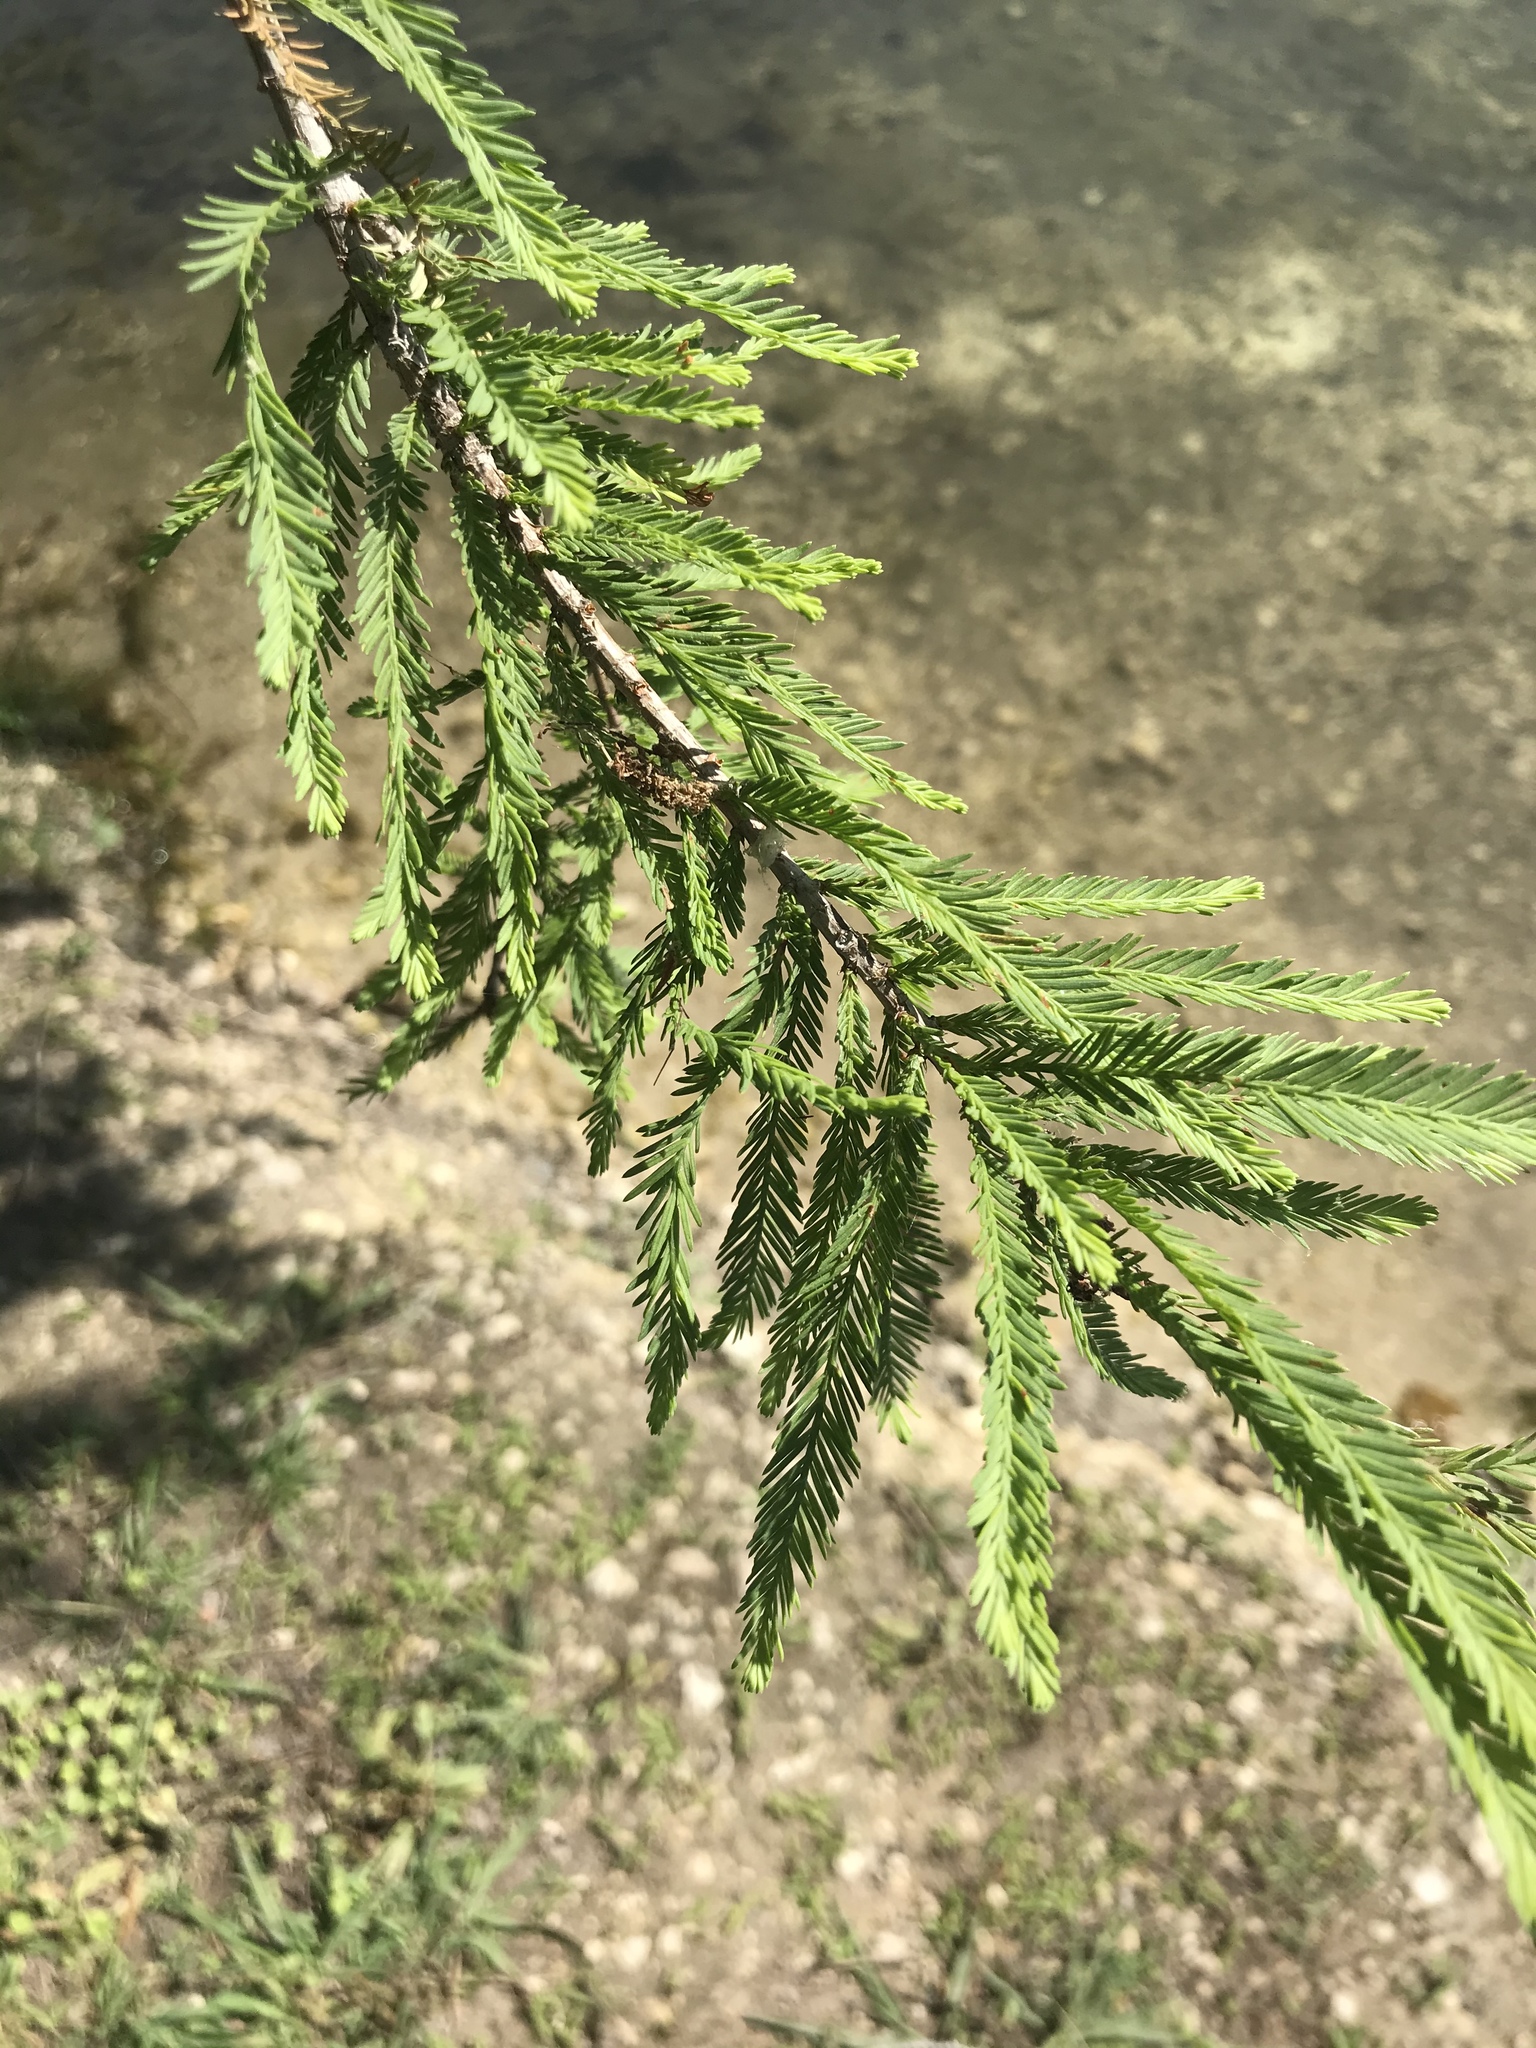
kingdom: Plantae
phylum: Tracheophyta
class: Pinopsida
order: Pinales
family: Cupressaceae
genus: Taxodium
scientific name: Taxodium distichum
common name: Bald cypress
